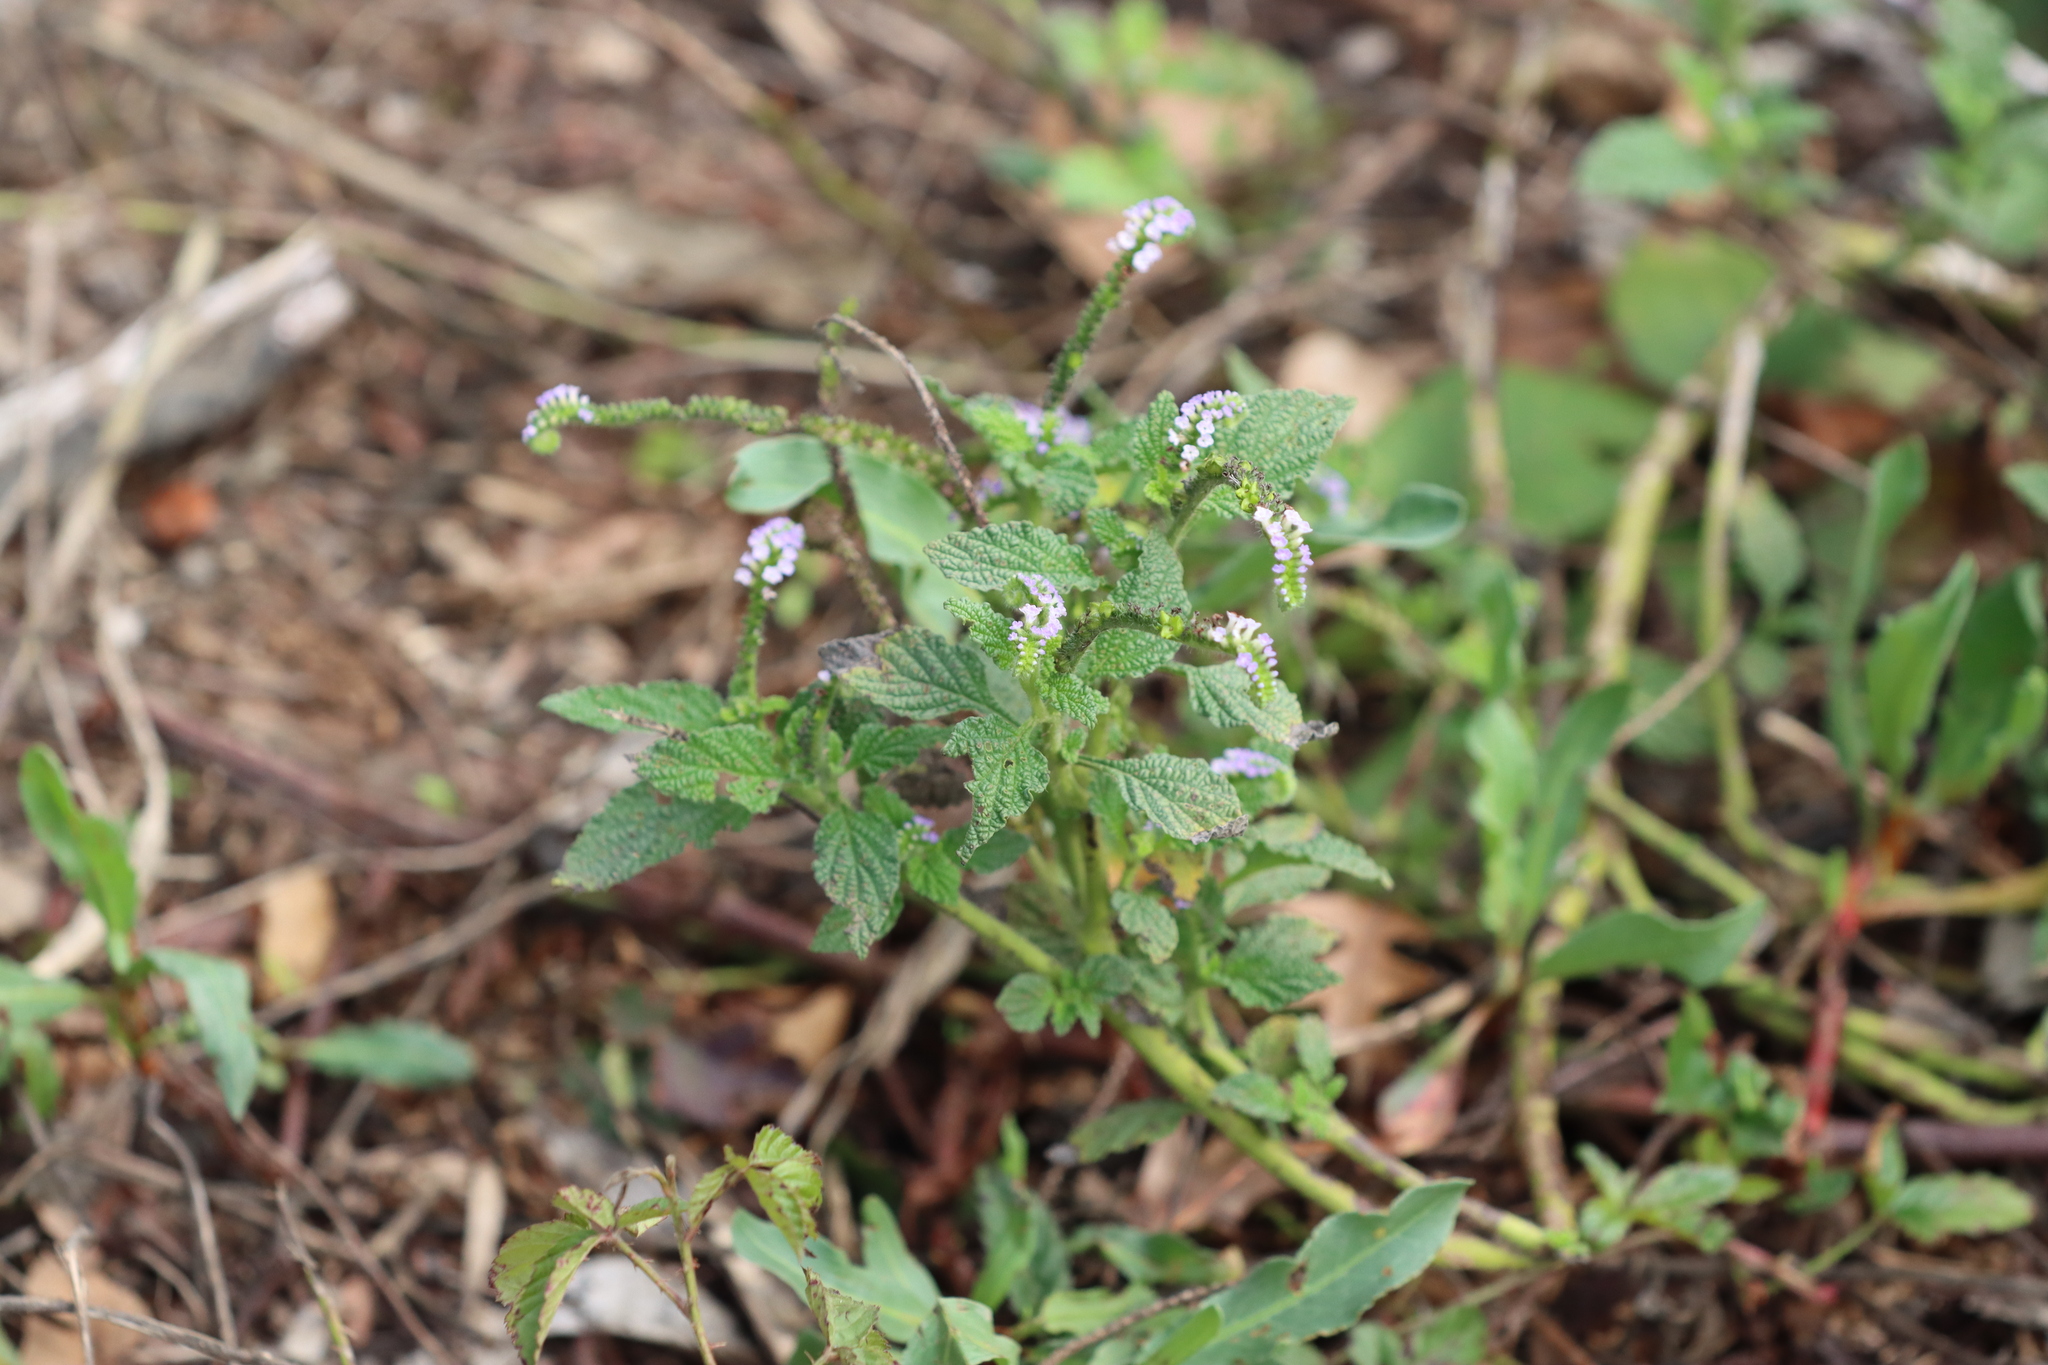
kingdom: Plantae
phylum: Tracheophyta
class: Magnoliopsida
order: Boraginales
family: Heliotropiaceae
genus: Heliotropium
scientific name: Heliotropium indicum
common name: Indian heliotrope
